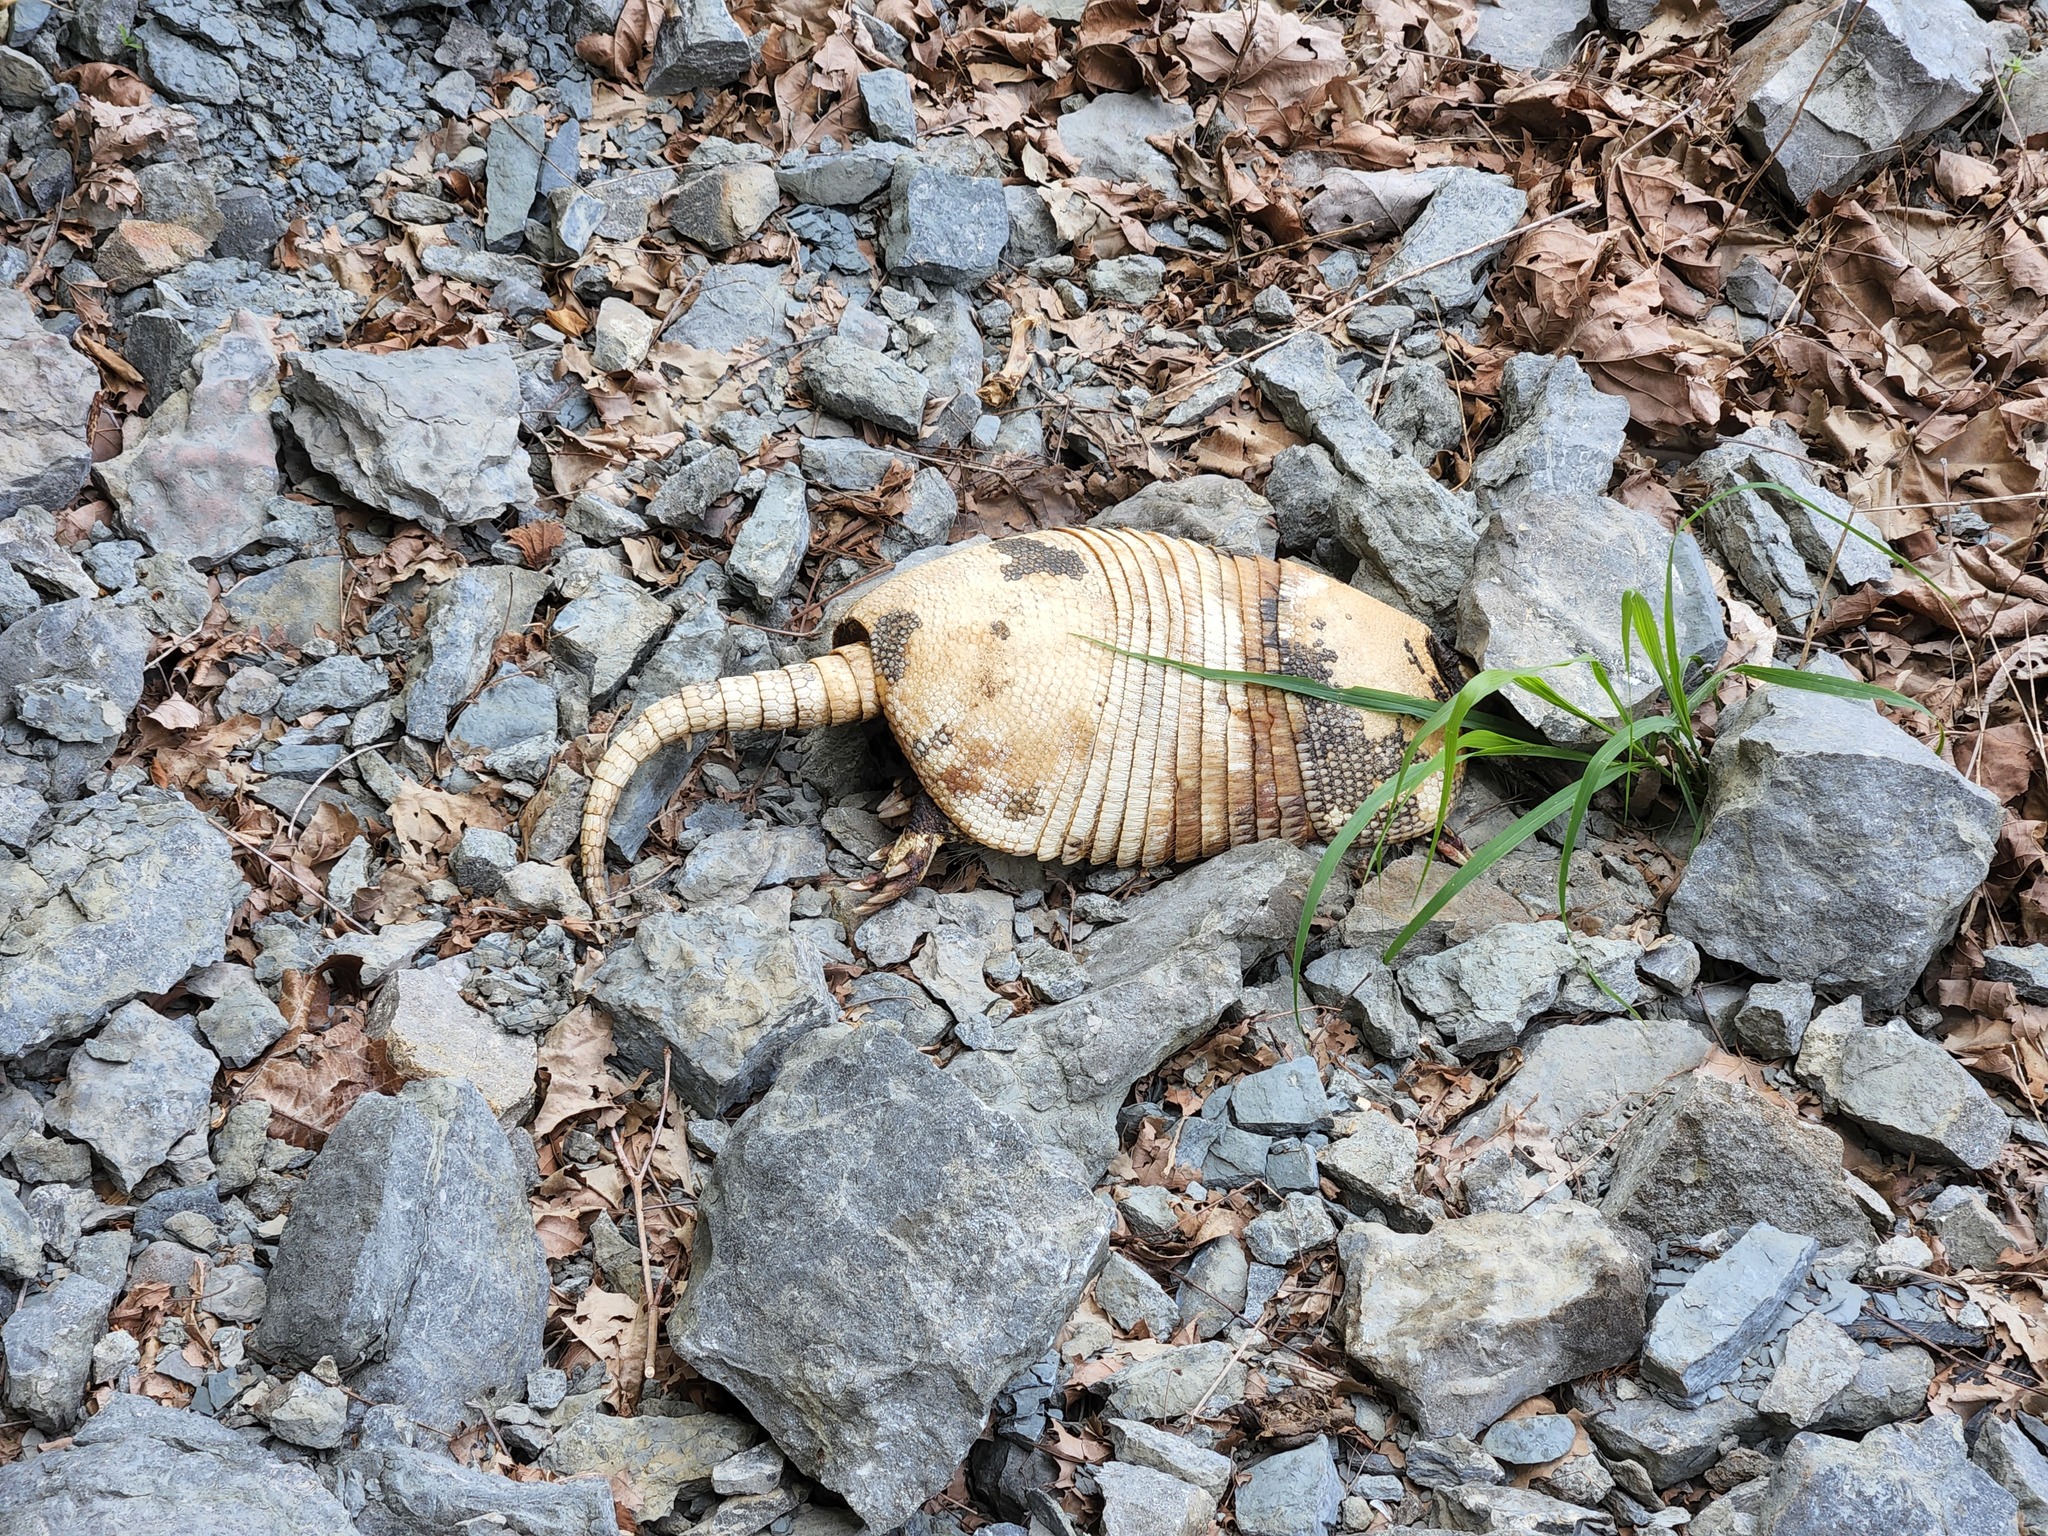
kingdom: Animalia
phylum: Chordata
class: Mammalia
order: Cingulata
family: Dasypodidae
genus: Dasypus
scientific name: Dasypus novemcinctus
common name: Nine-banded armadillo
